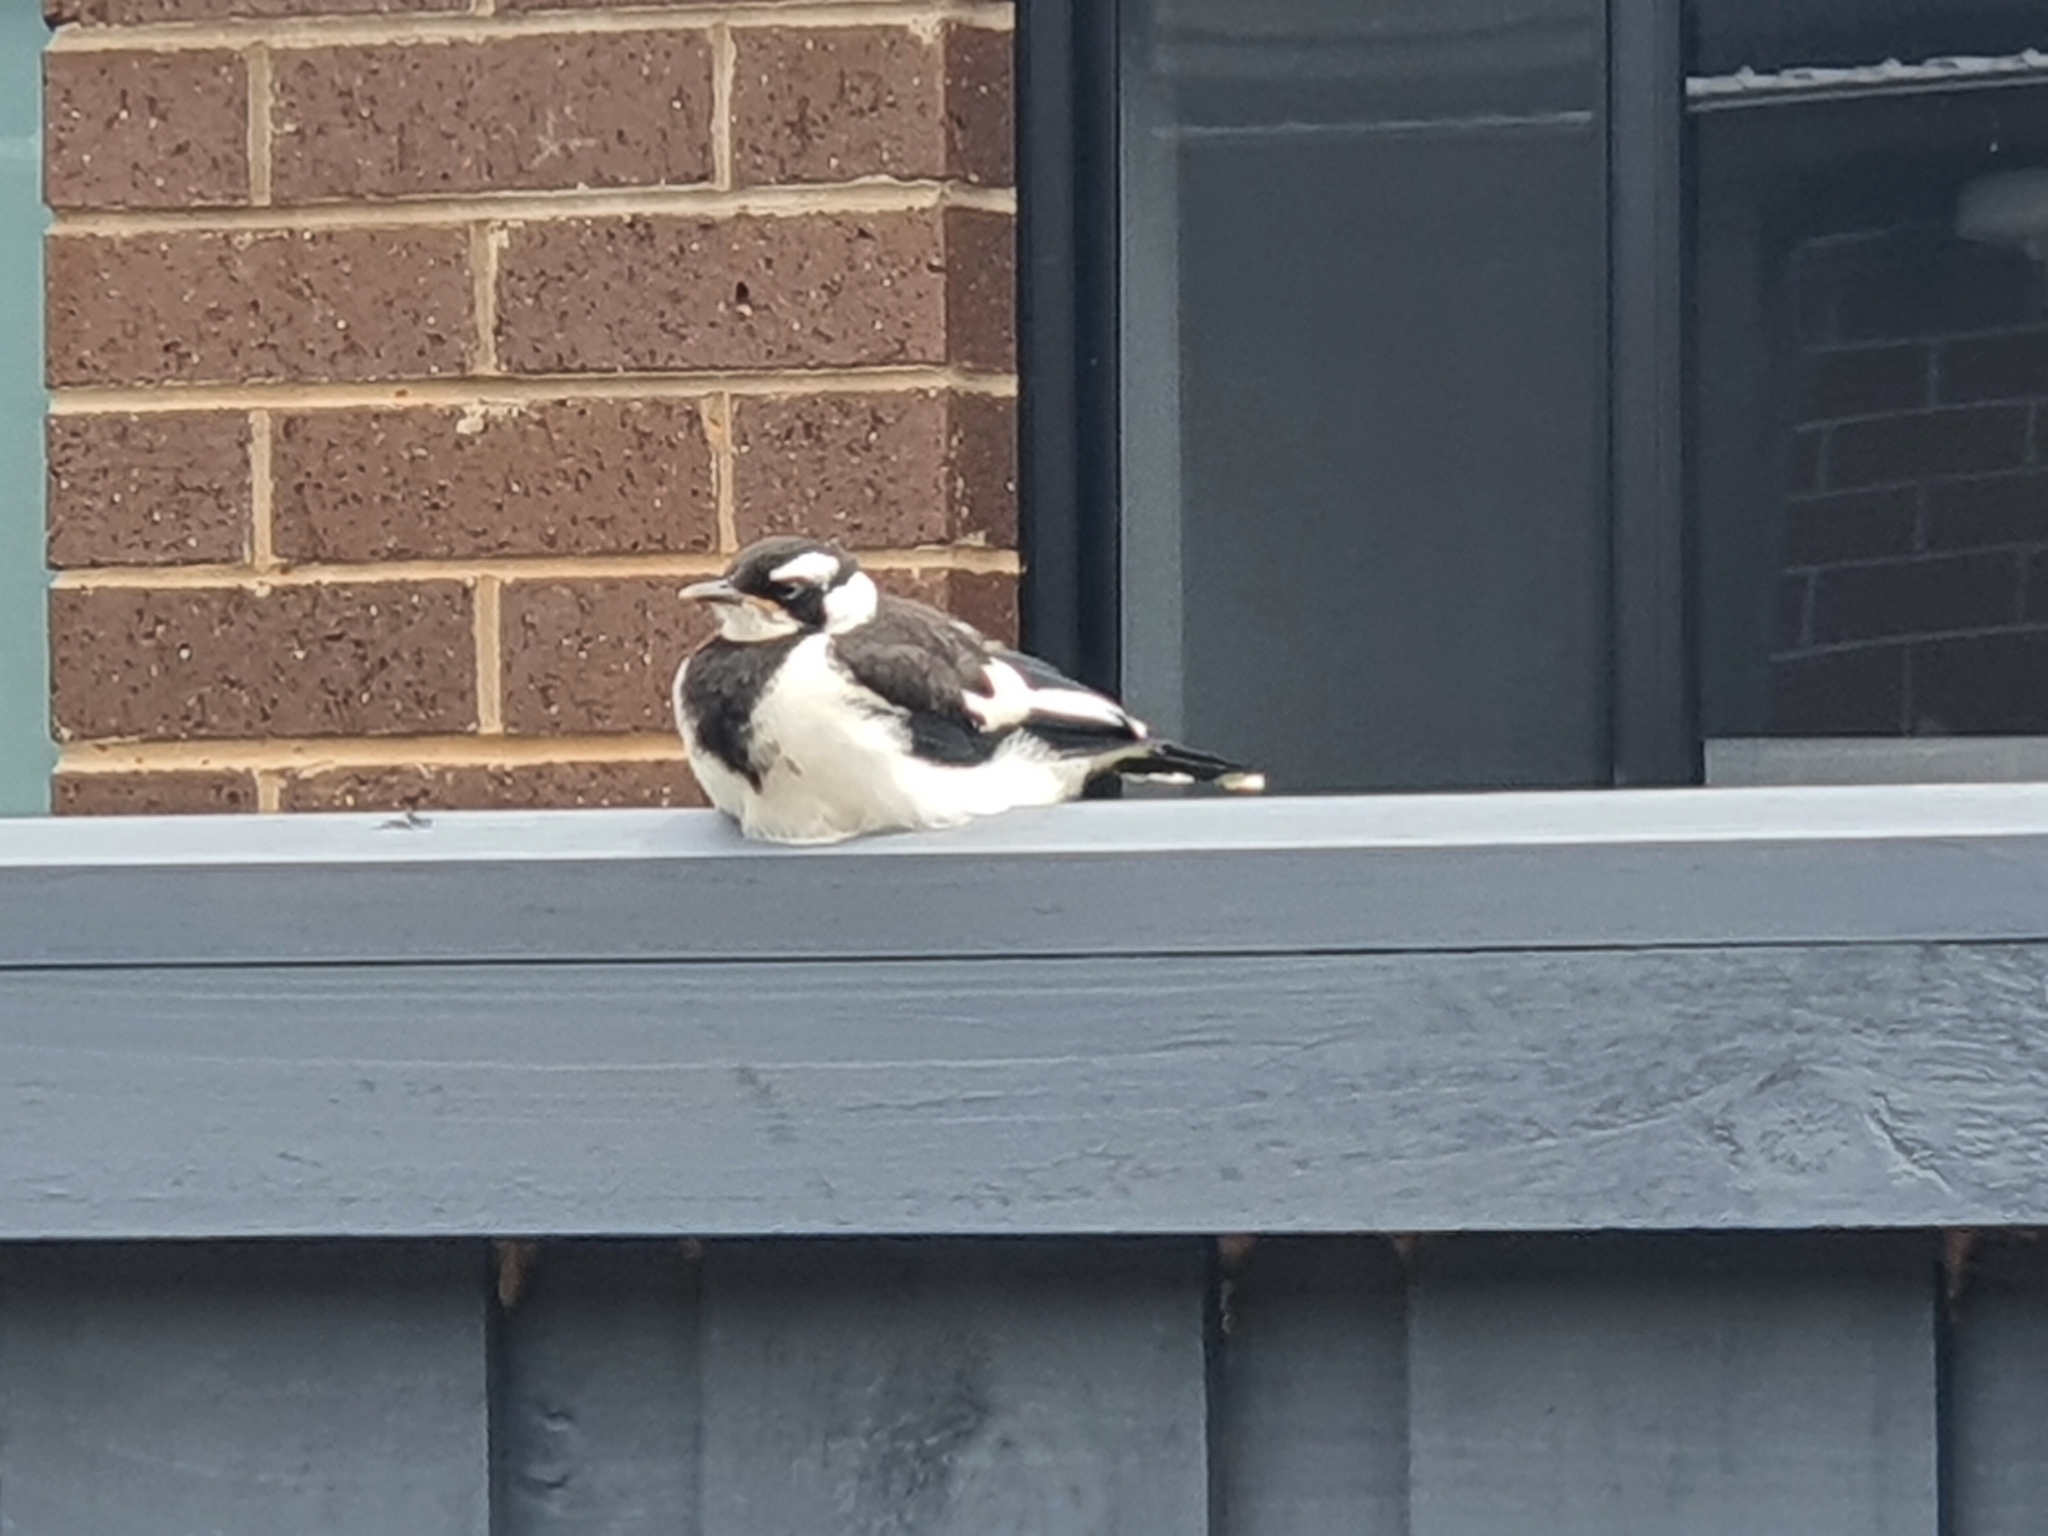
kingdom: Animalia
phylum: Chordata
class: Aves
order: Passeriformes
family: Monarchidae
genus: Grallina
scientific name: Grallina cyanoleuca
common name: Magpie-lark
